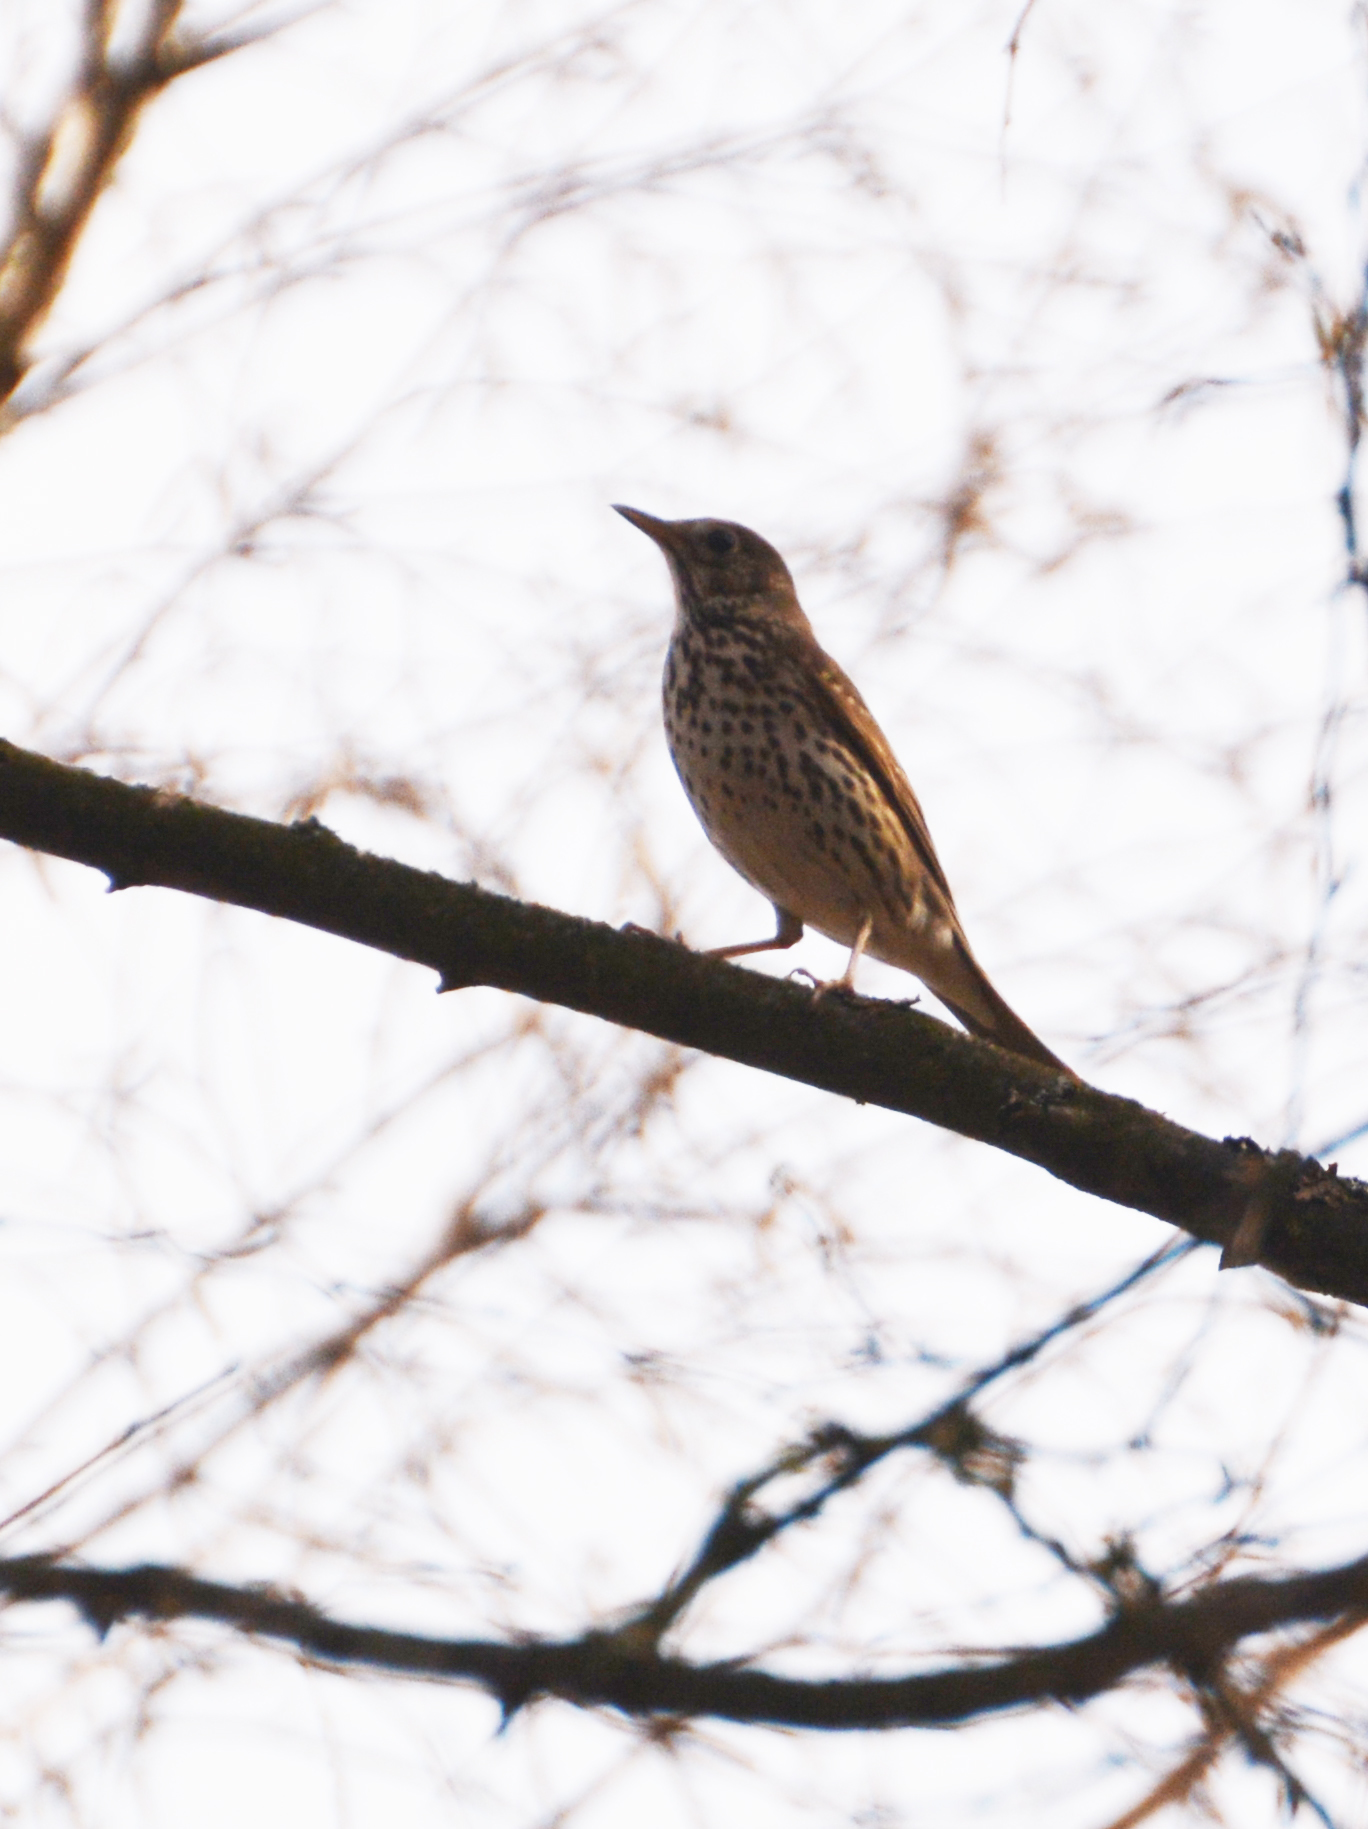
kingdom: Animalia
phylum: Chordata
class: Aves
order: Passeriformes
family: Turdidae
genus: Turdus
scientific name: Turdus philomelos
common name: Song thrush
